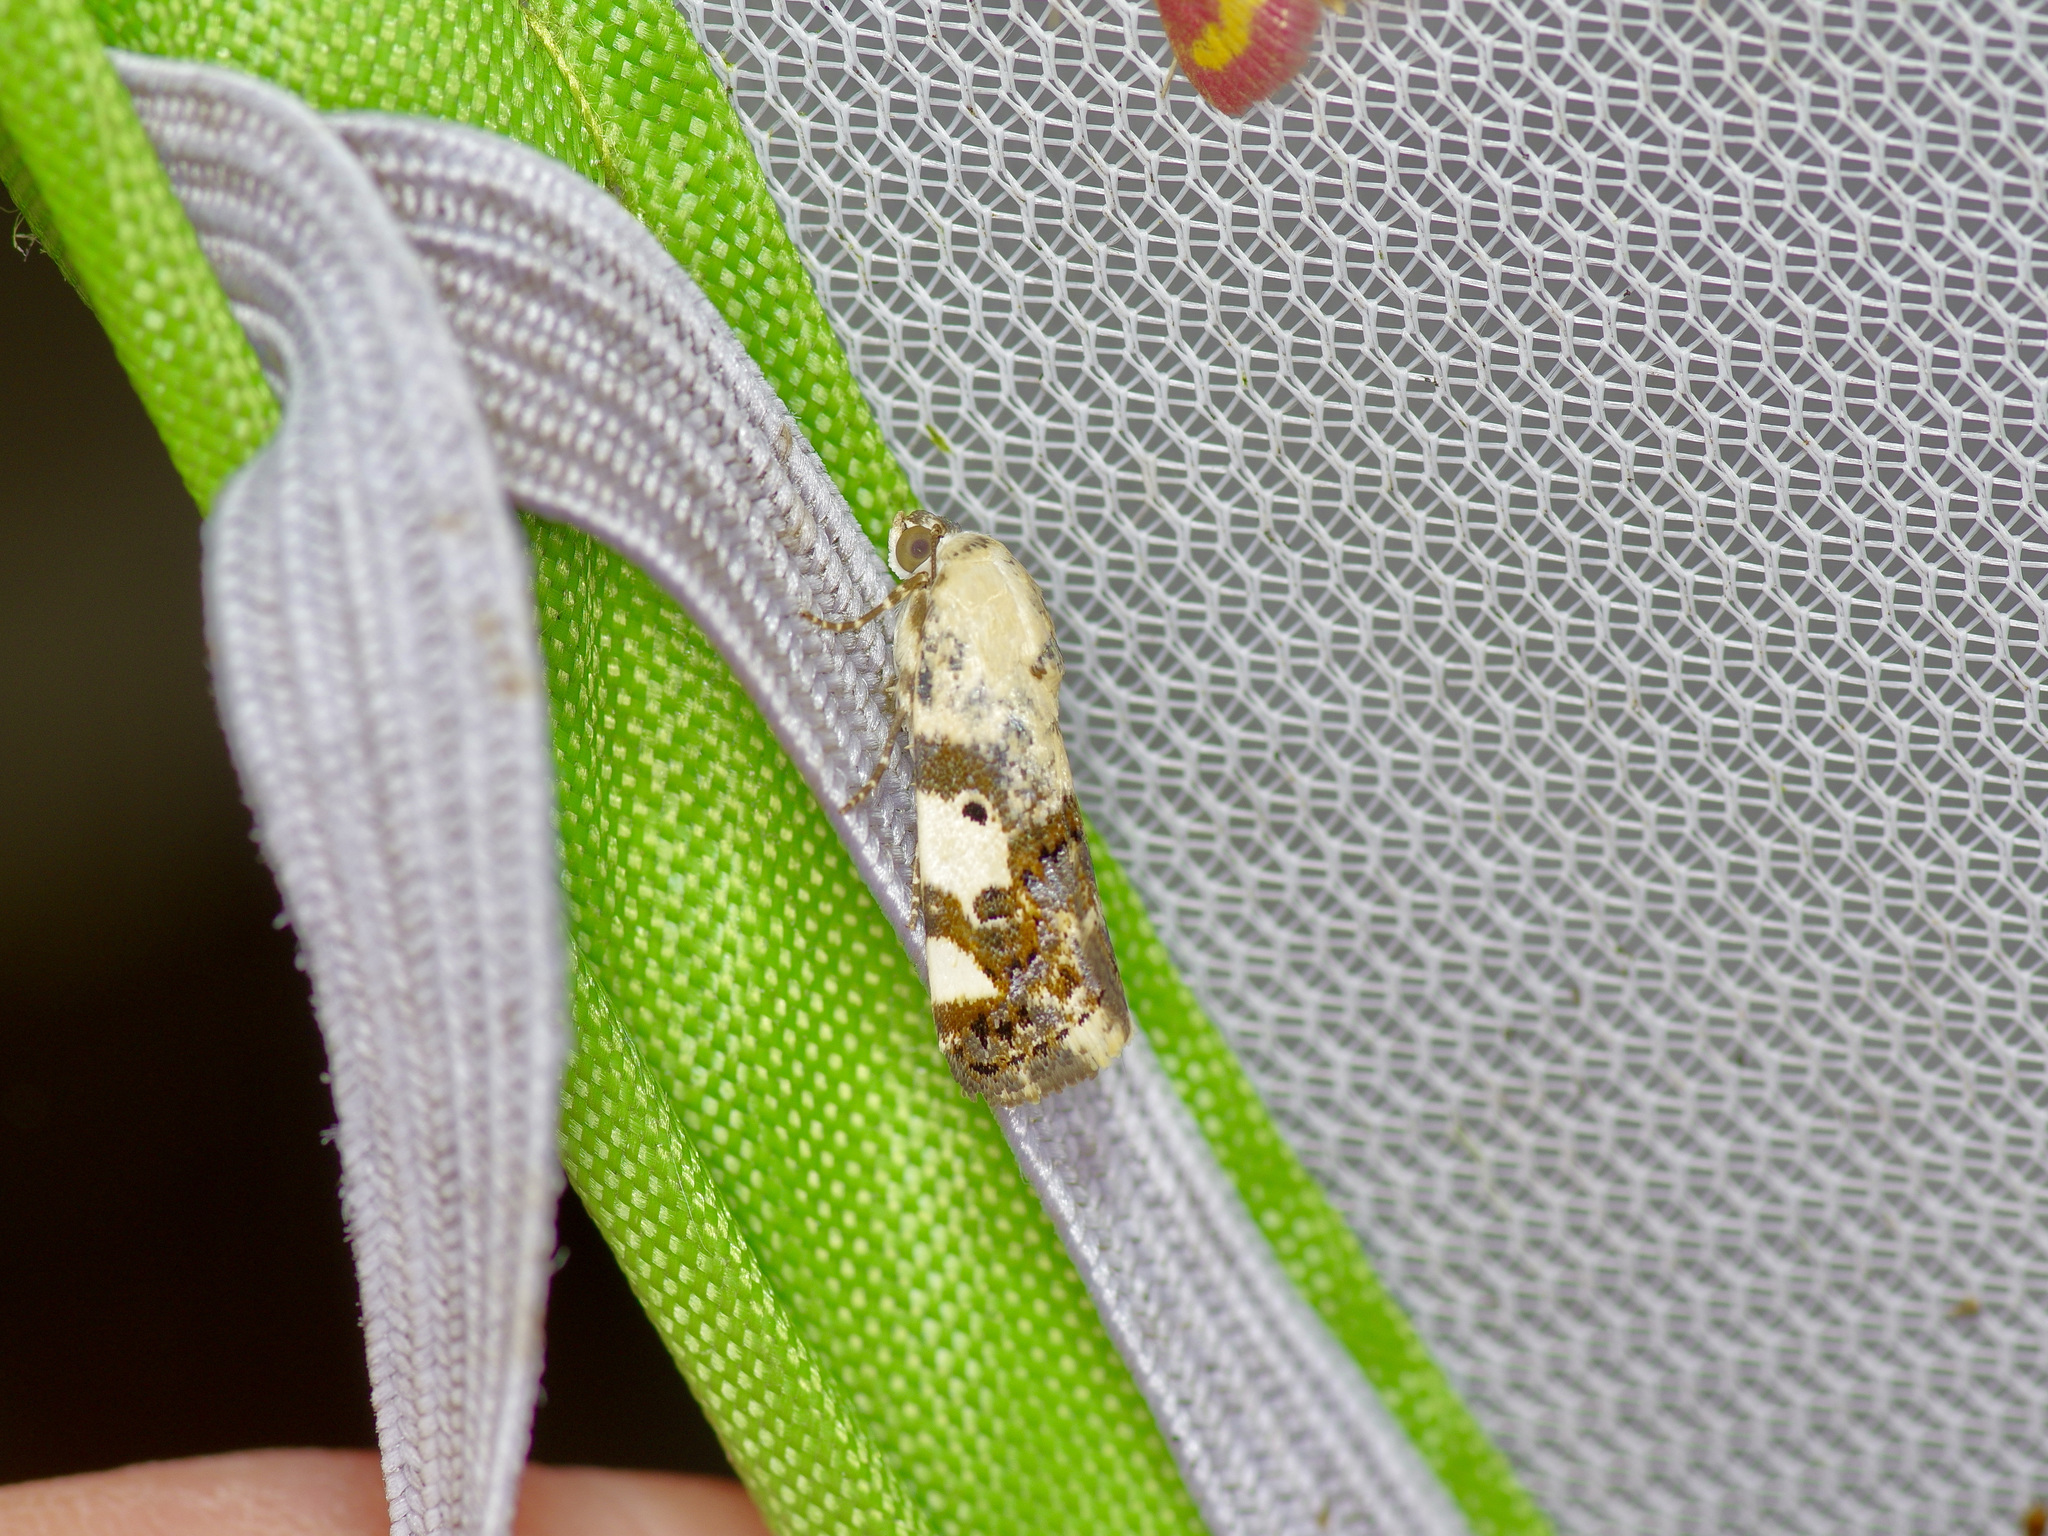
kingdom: Animalia
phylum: Arthropoda
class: Insecta
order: Lepidoptera
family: Noctuidae
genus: Acontia
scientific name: Acontia aprica
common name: Nun
